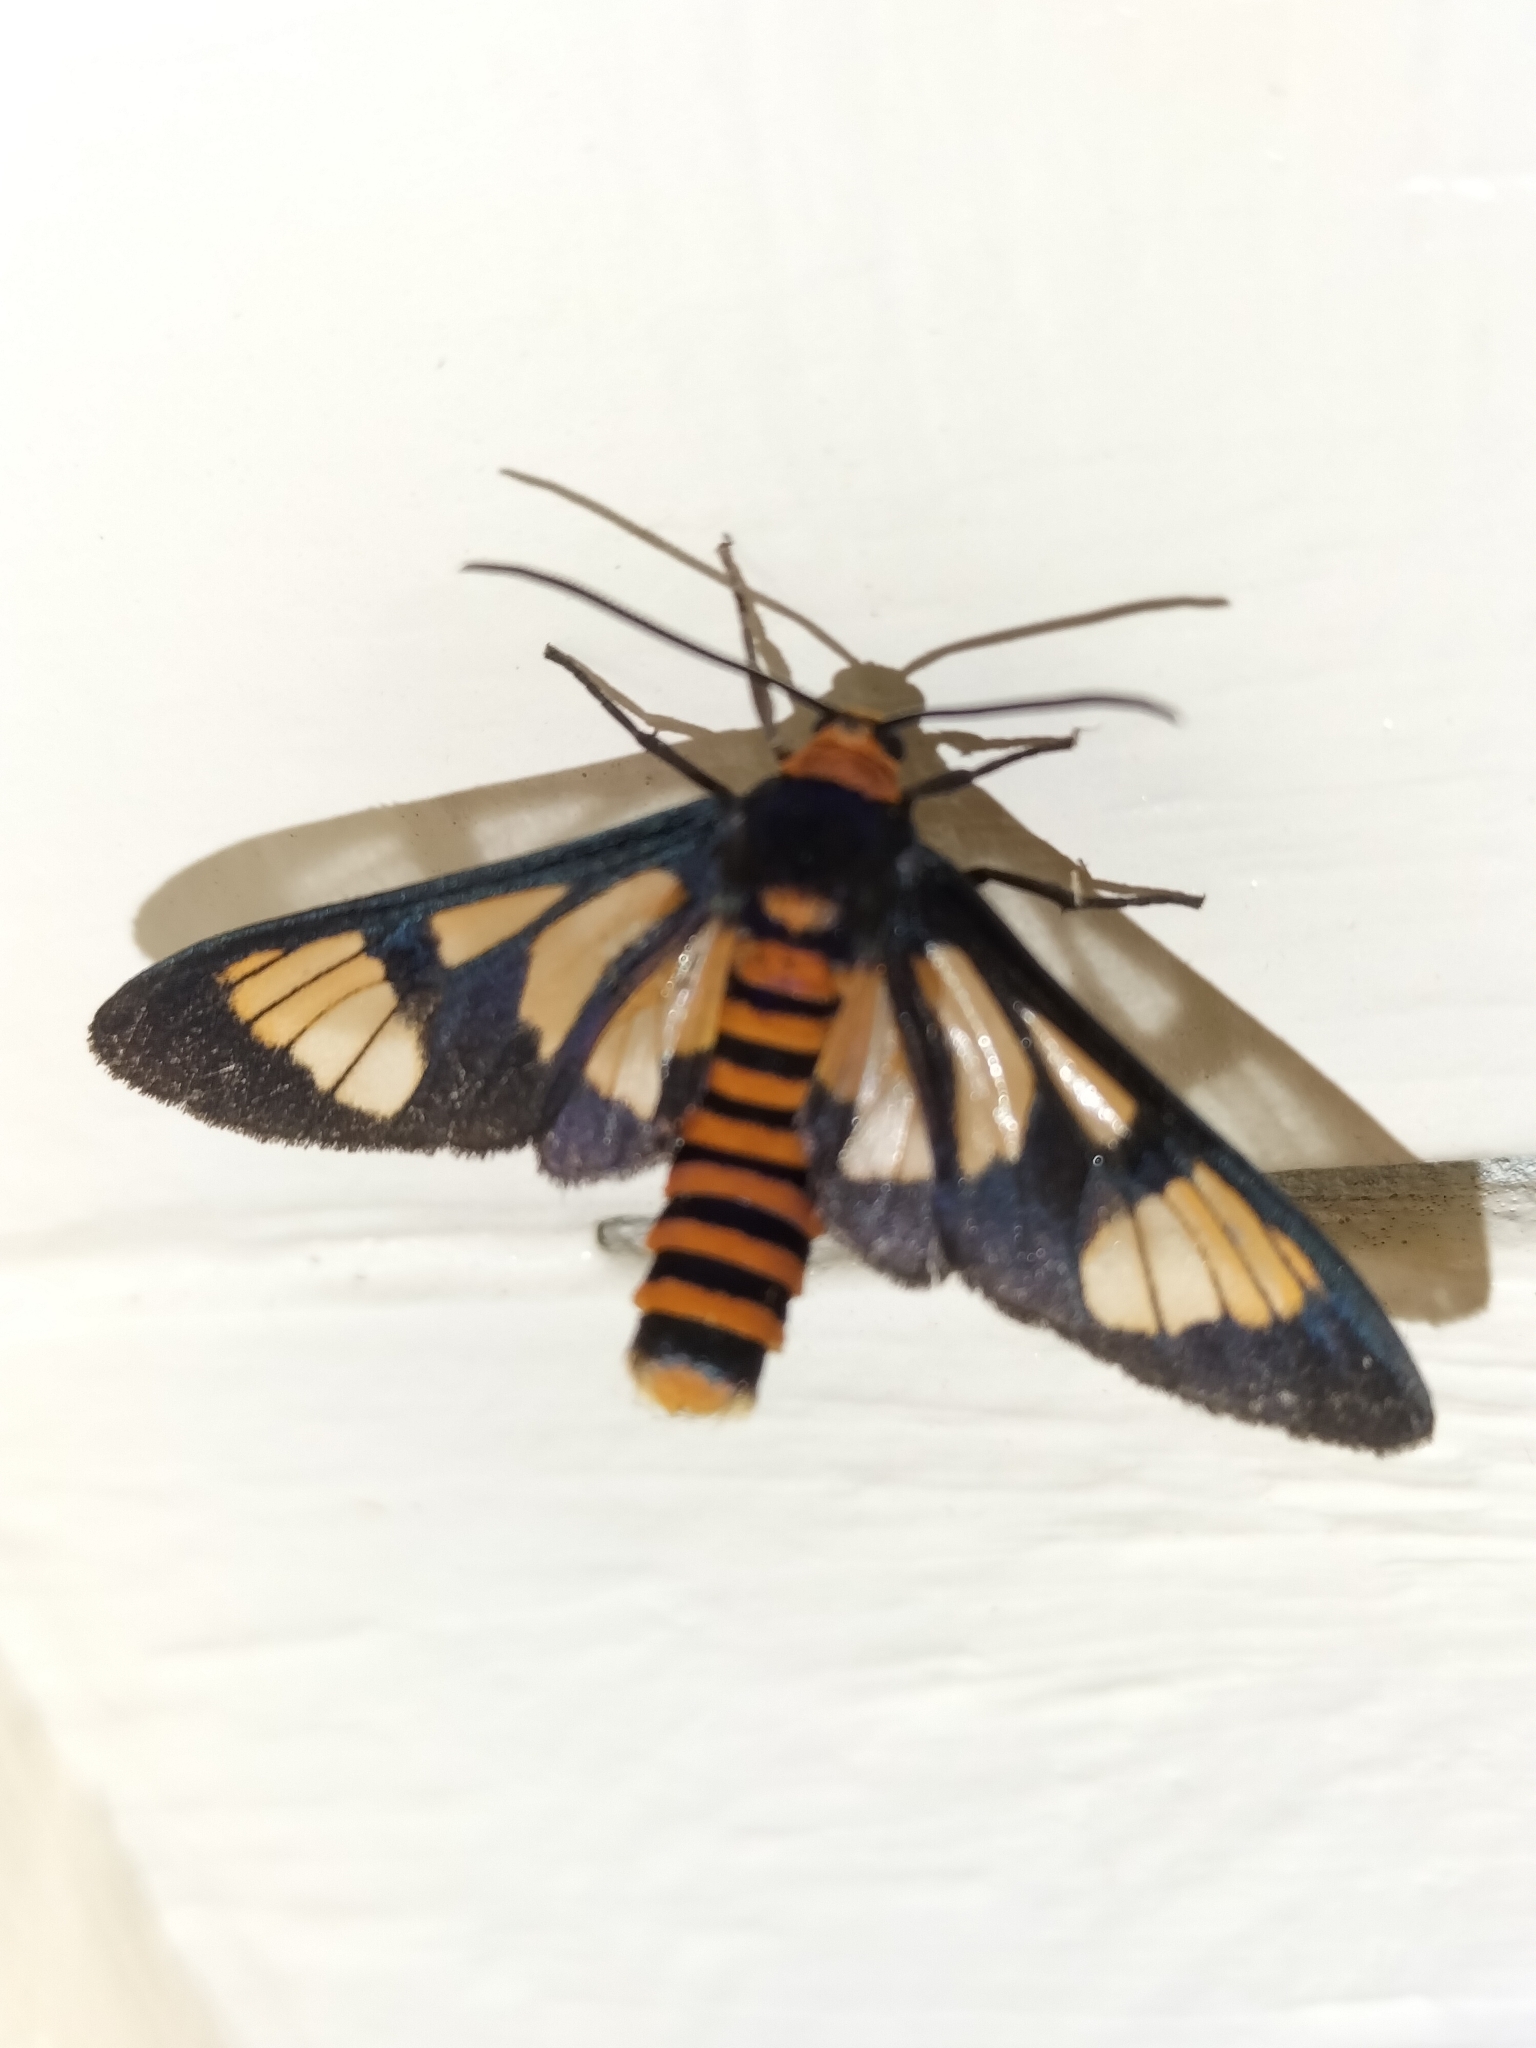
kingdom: Animalia
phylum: Arthropoda
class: Insecta
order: Lepidoptera
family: Erebidae
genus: Amata
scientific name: Amata marella
